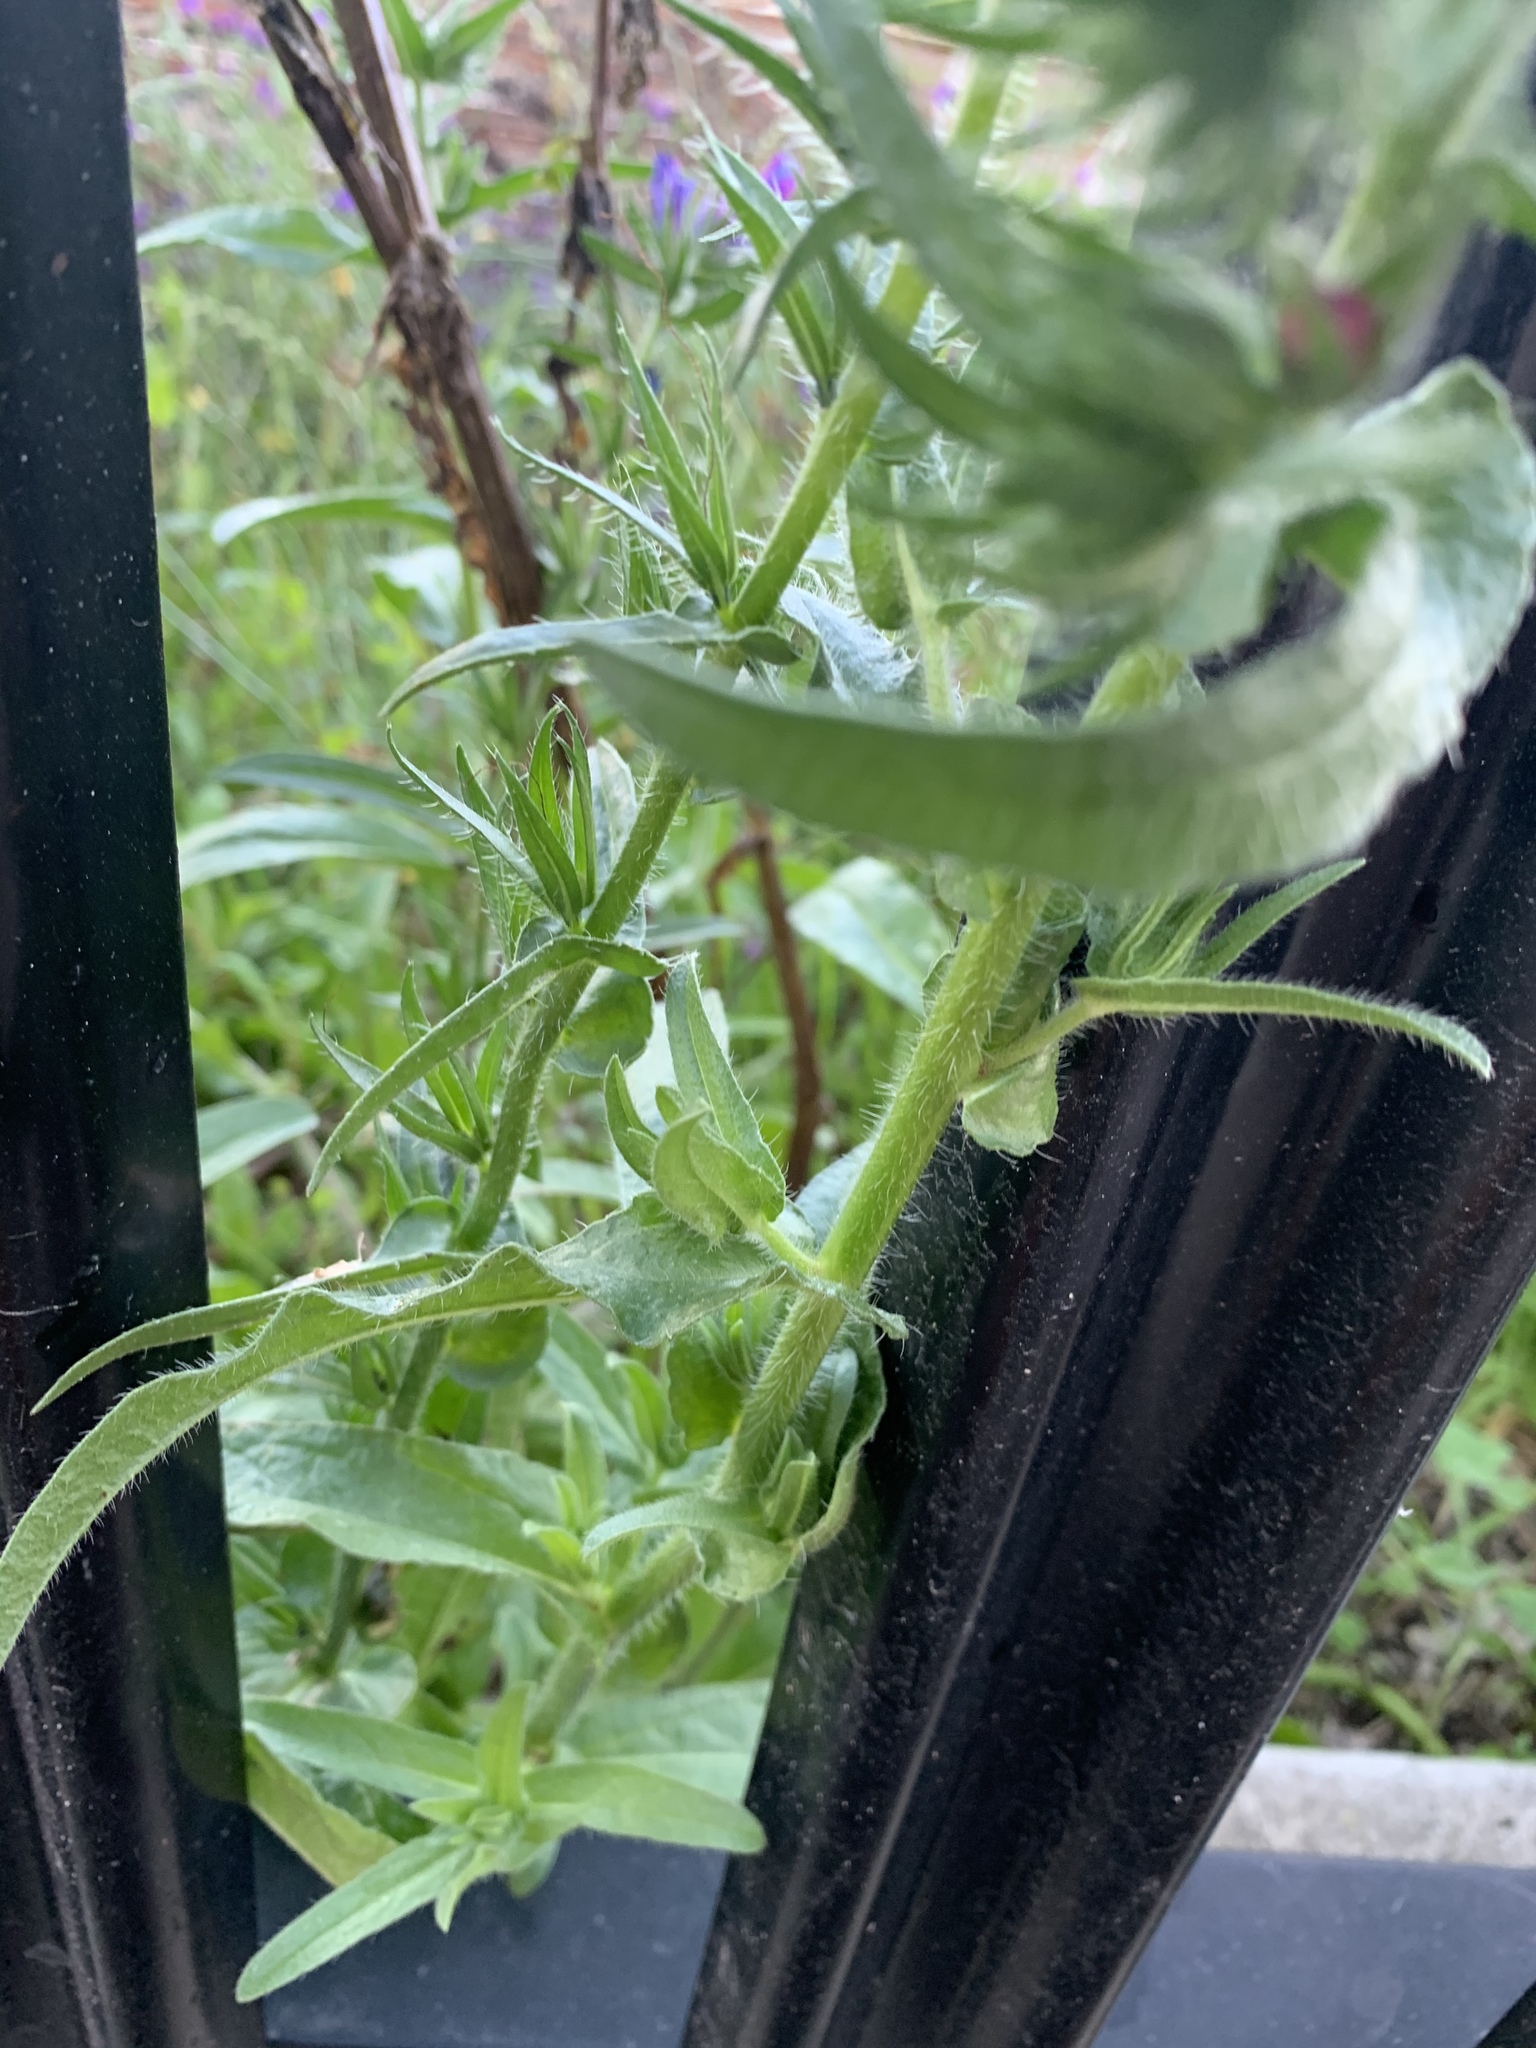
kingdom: Plantae
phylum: Tracheophyta
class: Magnoliopsida
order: Boraginales
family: Boraginaceae
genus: Echium
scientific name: Echium plantagineum
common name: Purple viper's-bugloss
